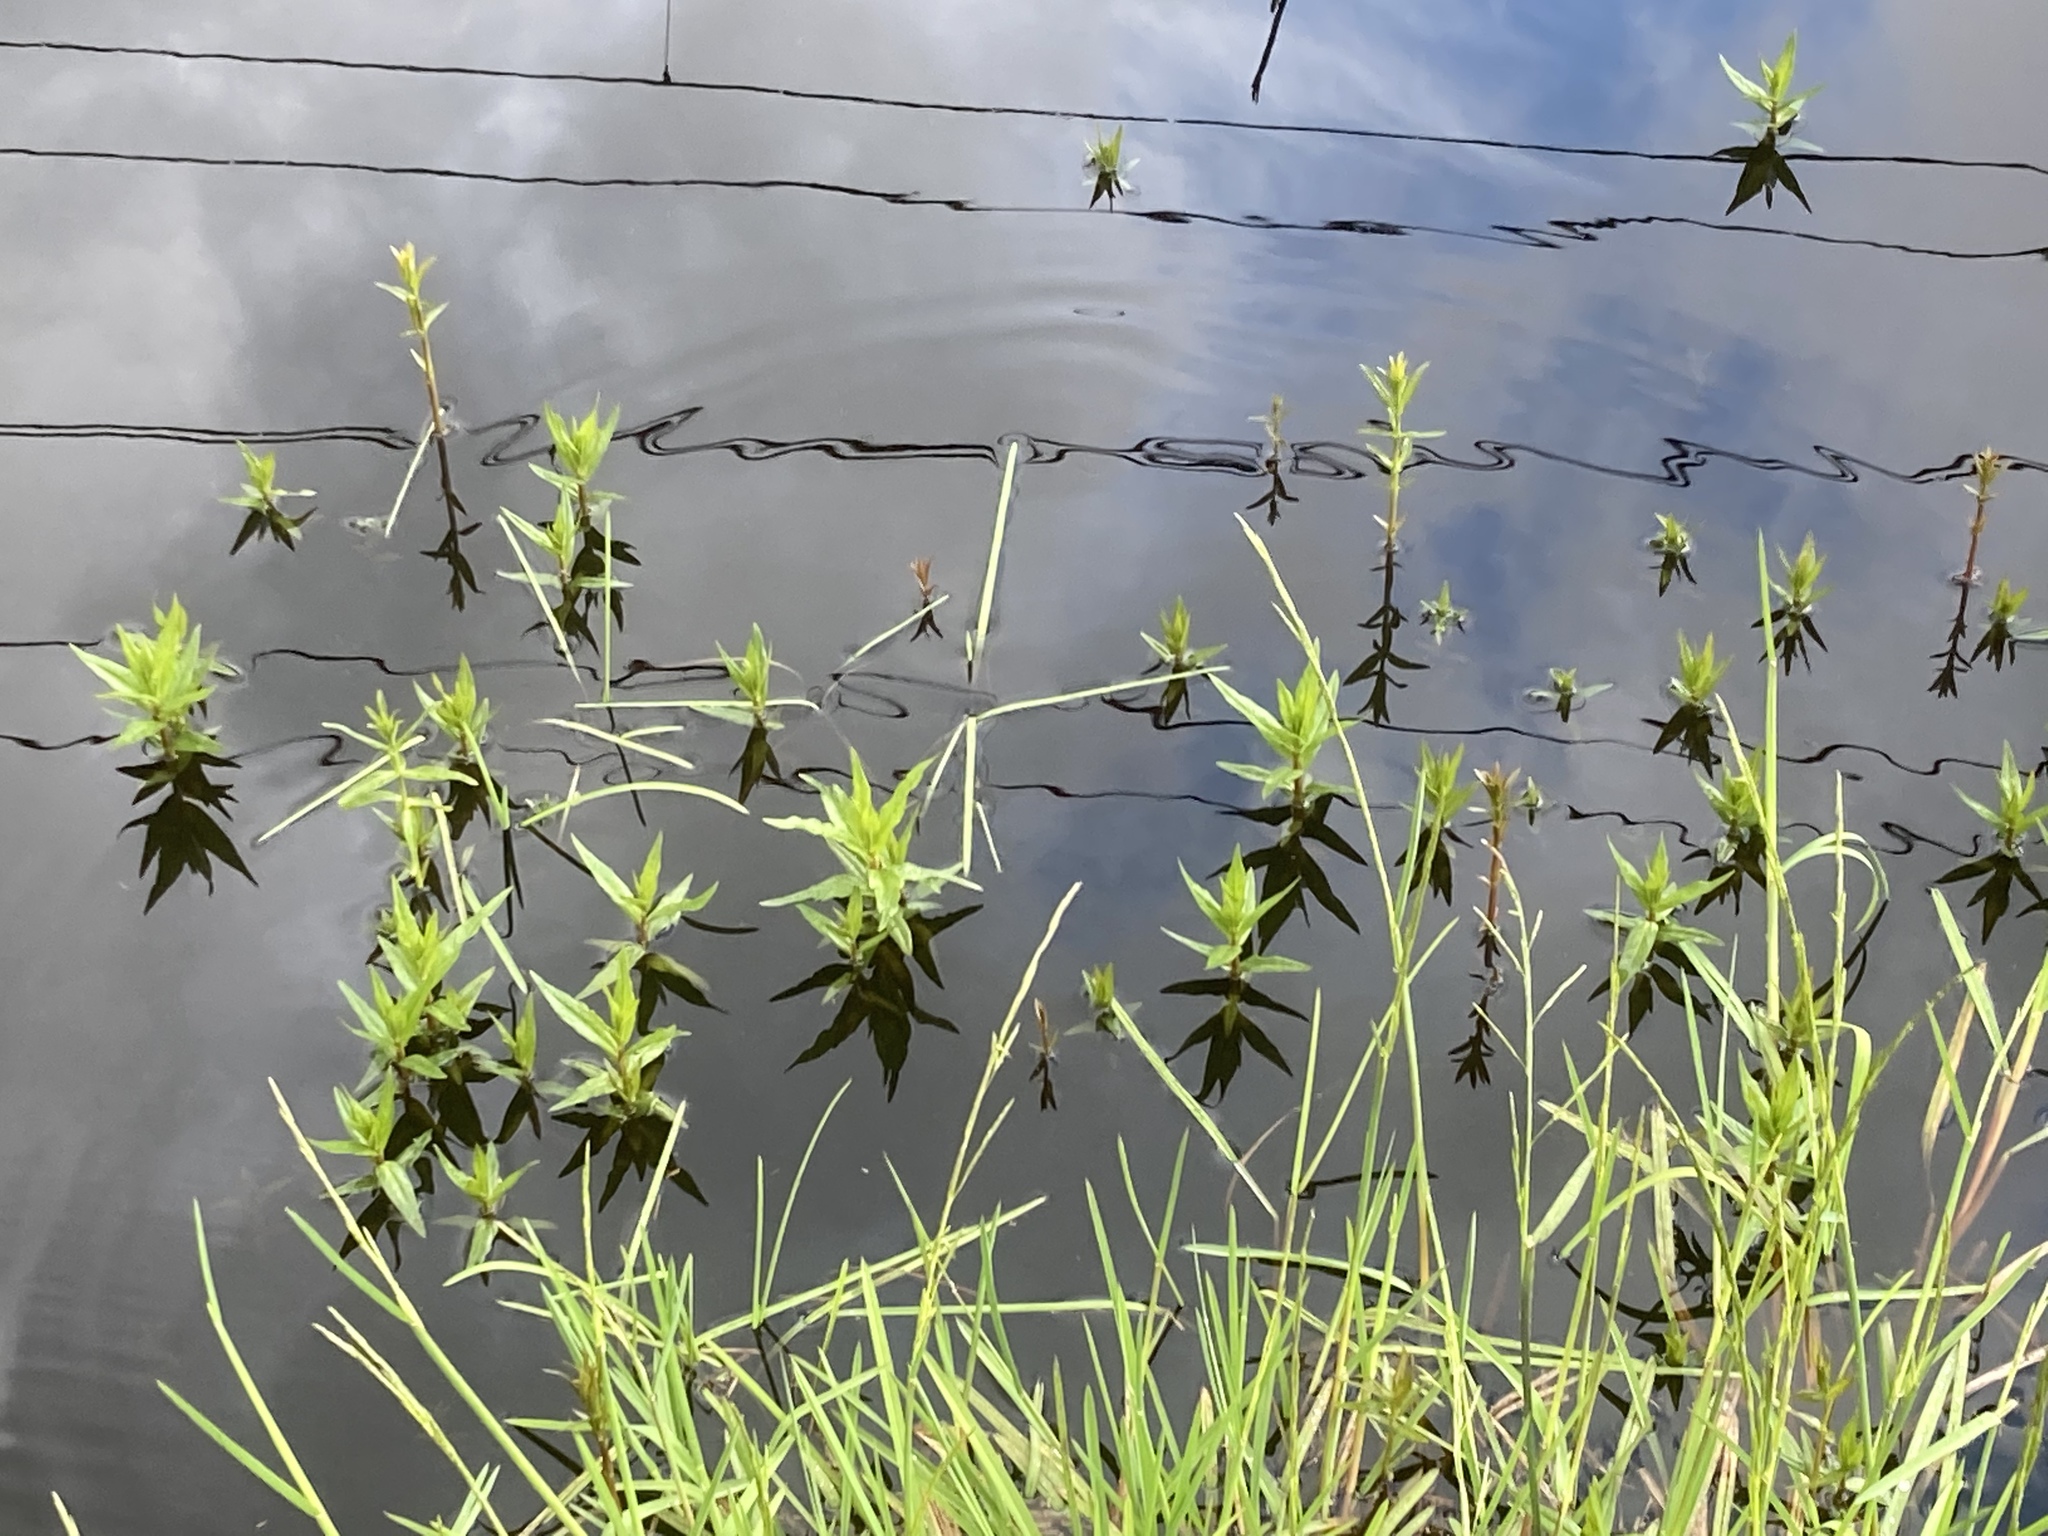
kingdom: Plantae
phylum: Tracheophyta
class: Magnoliopsida
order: Ericales
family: Primulaceae
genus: Lysimachia
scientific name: Lysimachia thyrsiflora
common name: Tufted loosestrife
